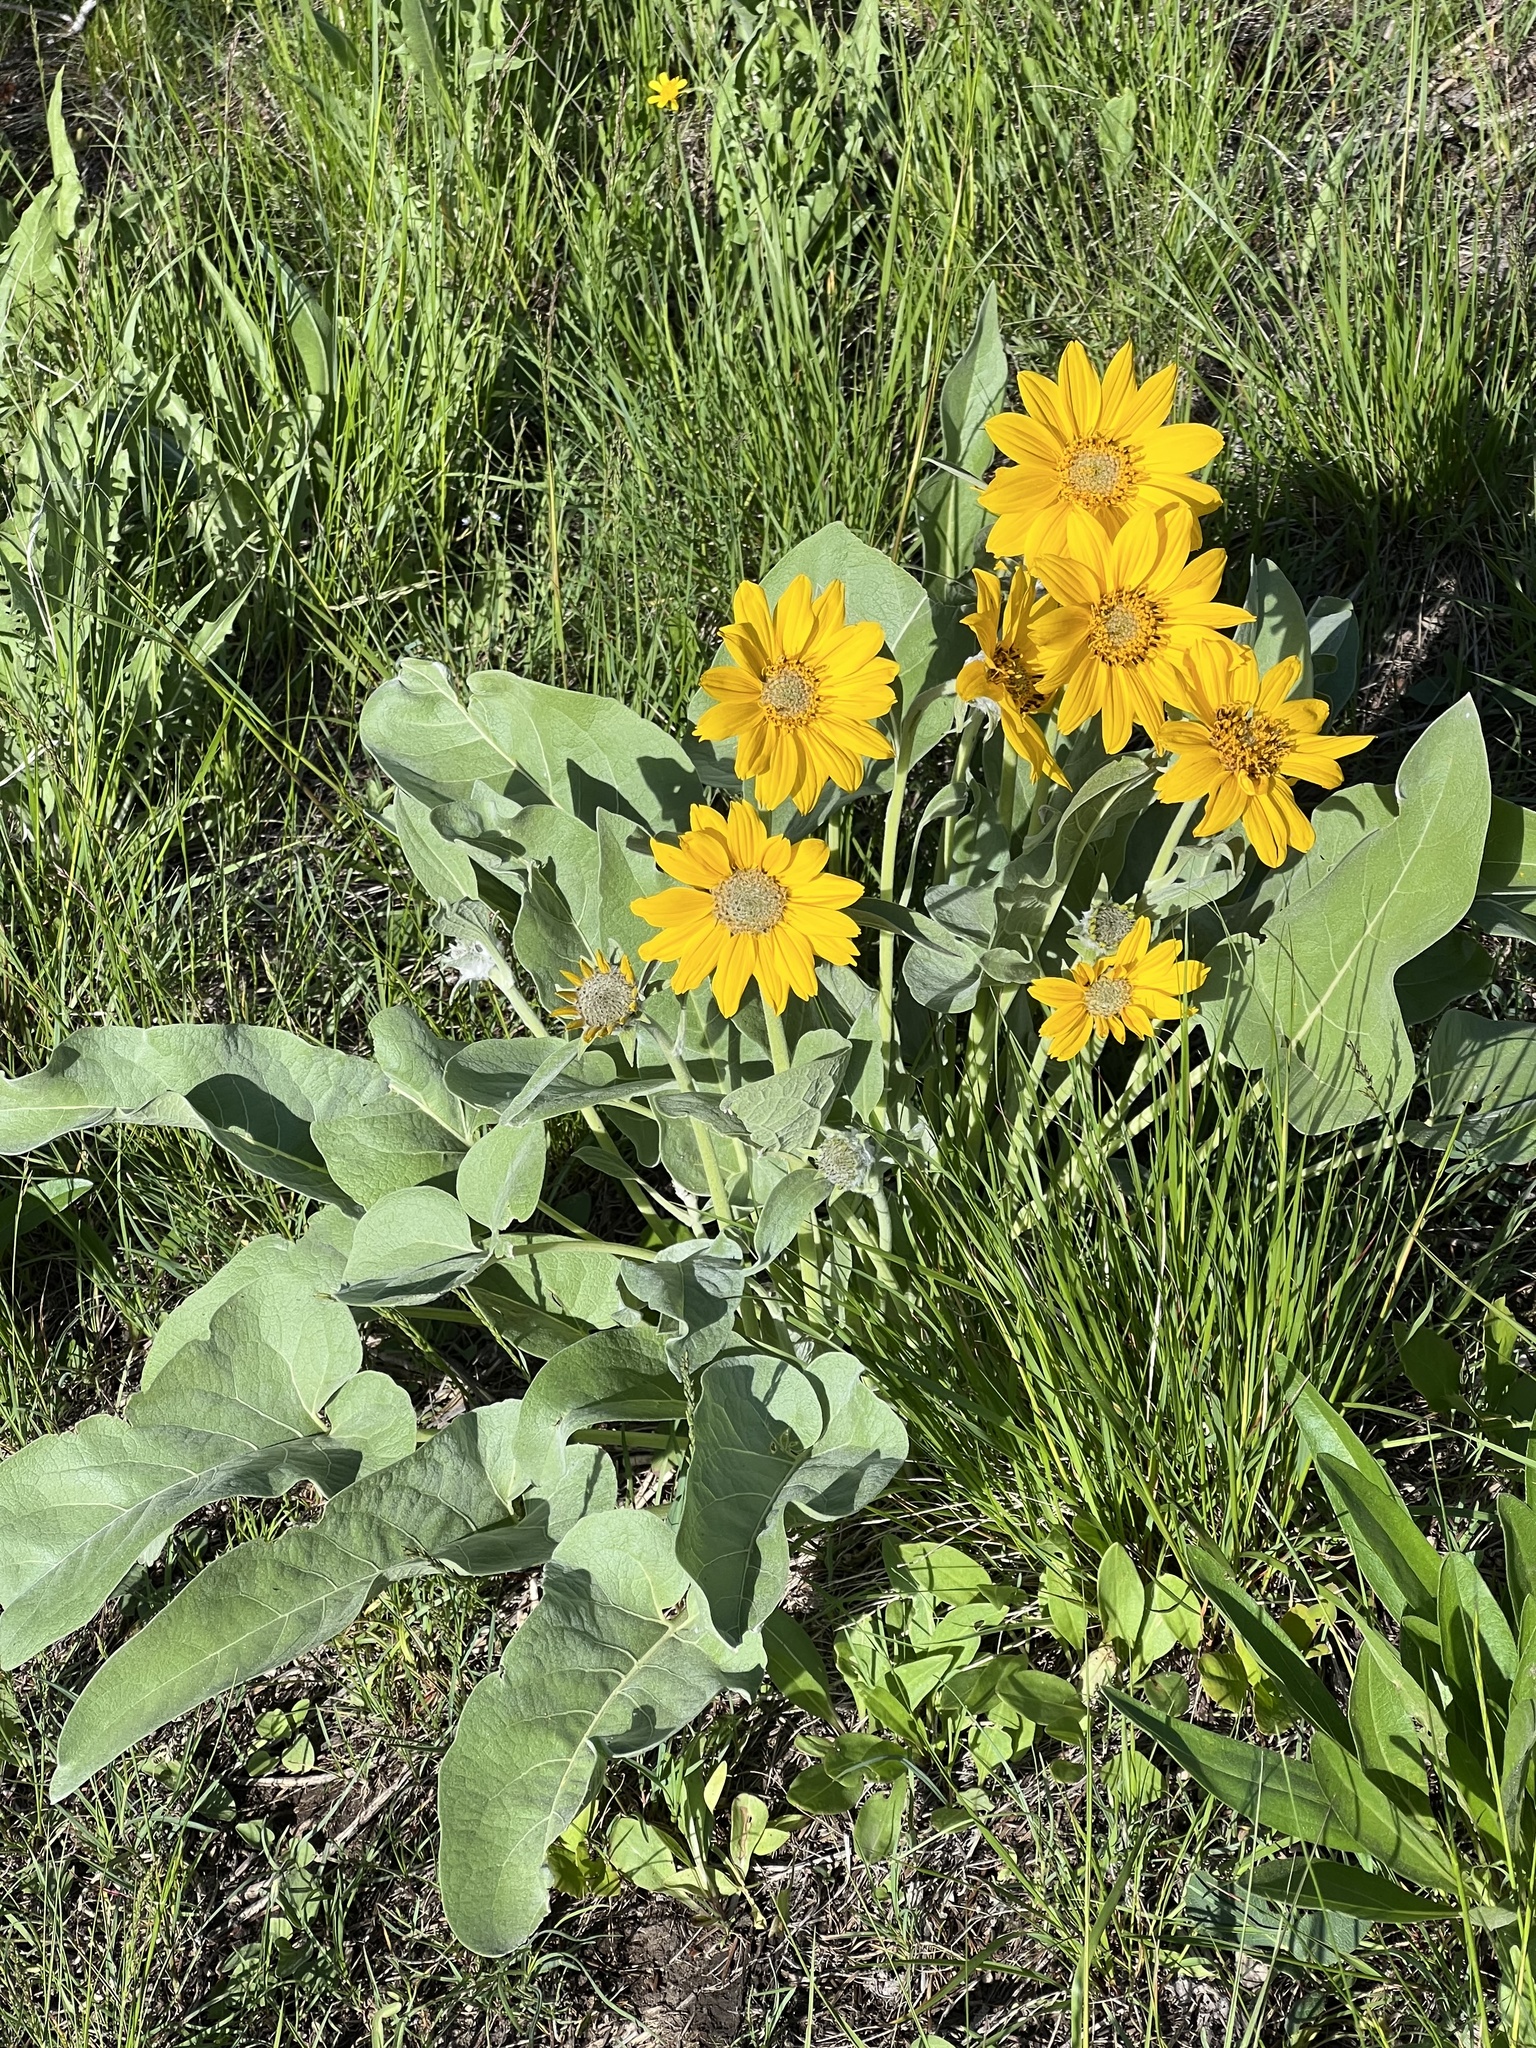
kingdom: Plantae
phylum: Tracheophyta
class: Magnoliopsida
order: Asterales
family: Asteraceae
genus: Wyethia
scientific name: Wyethia sagittata
